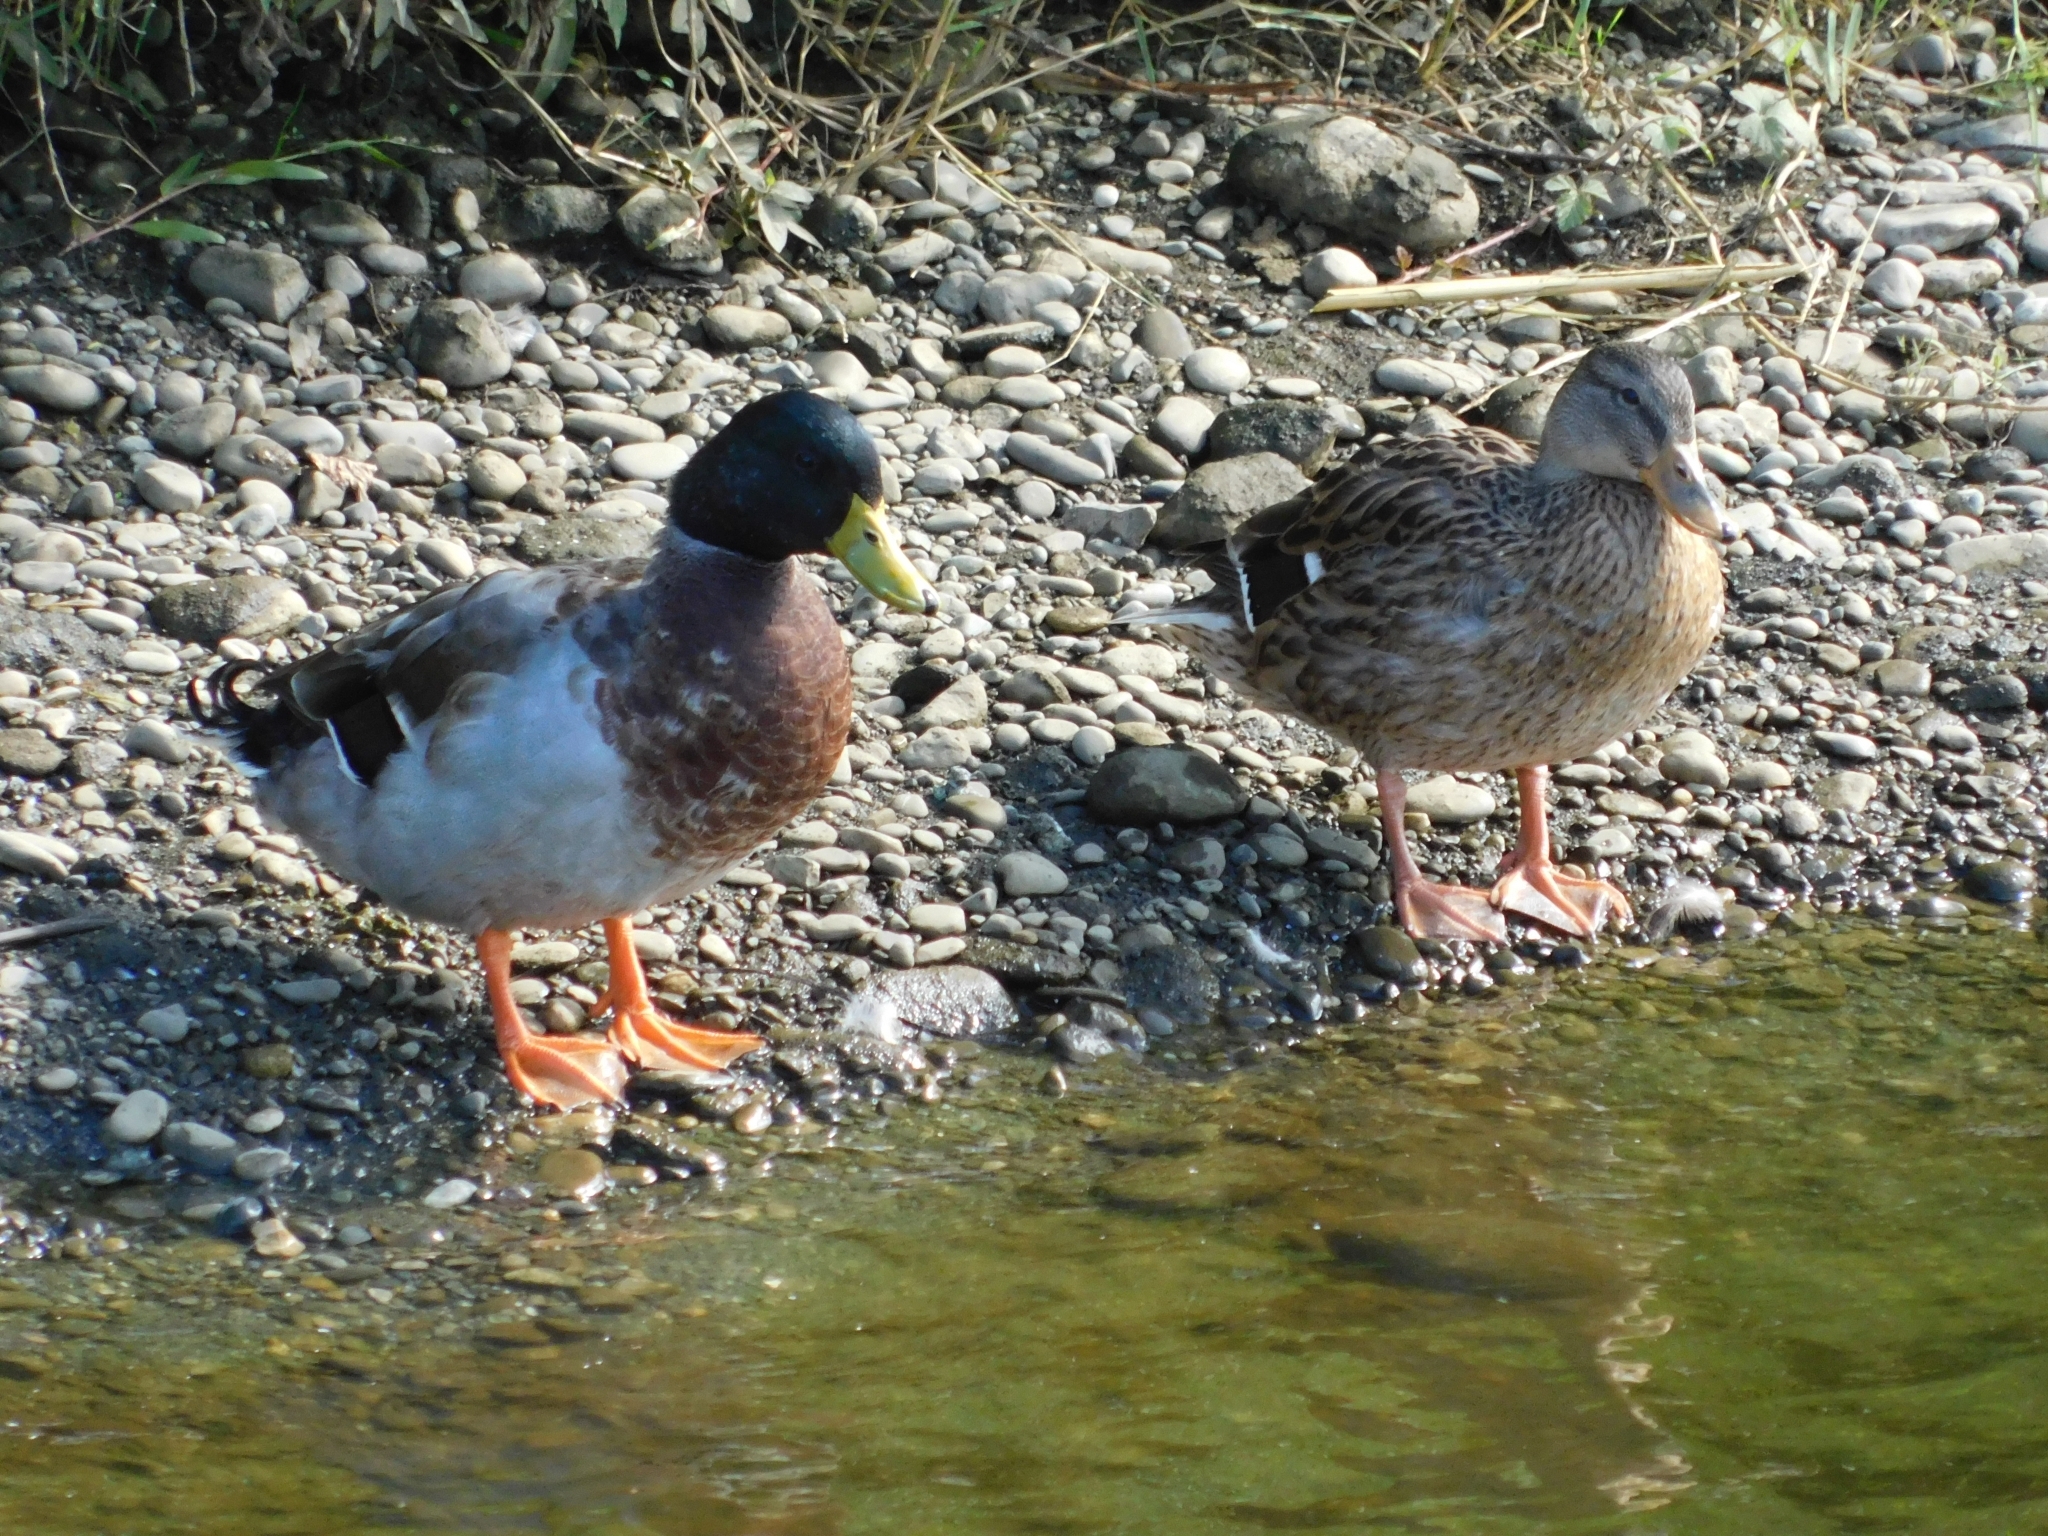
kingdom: Animalia
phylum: Chordata
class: Aves
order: Anseriformes
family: Anatidae
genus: Anas
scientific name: Anas platyrhynchos
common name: Mallard
